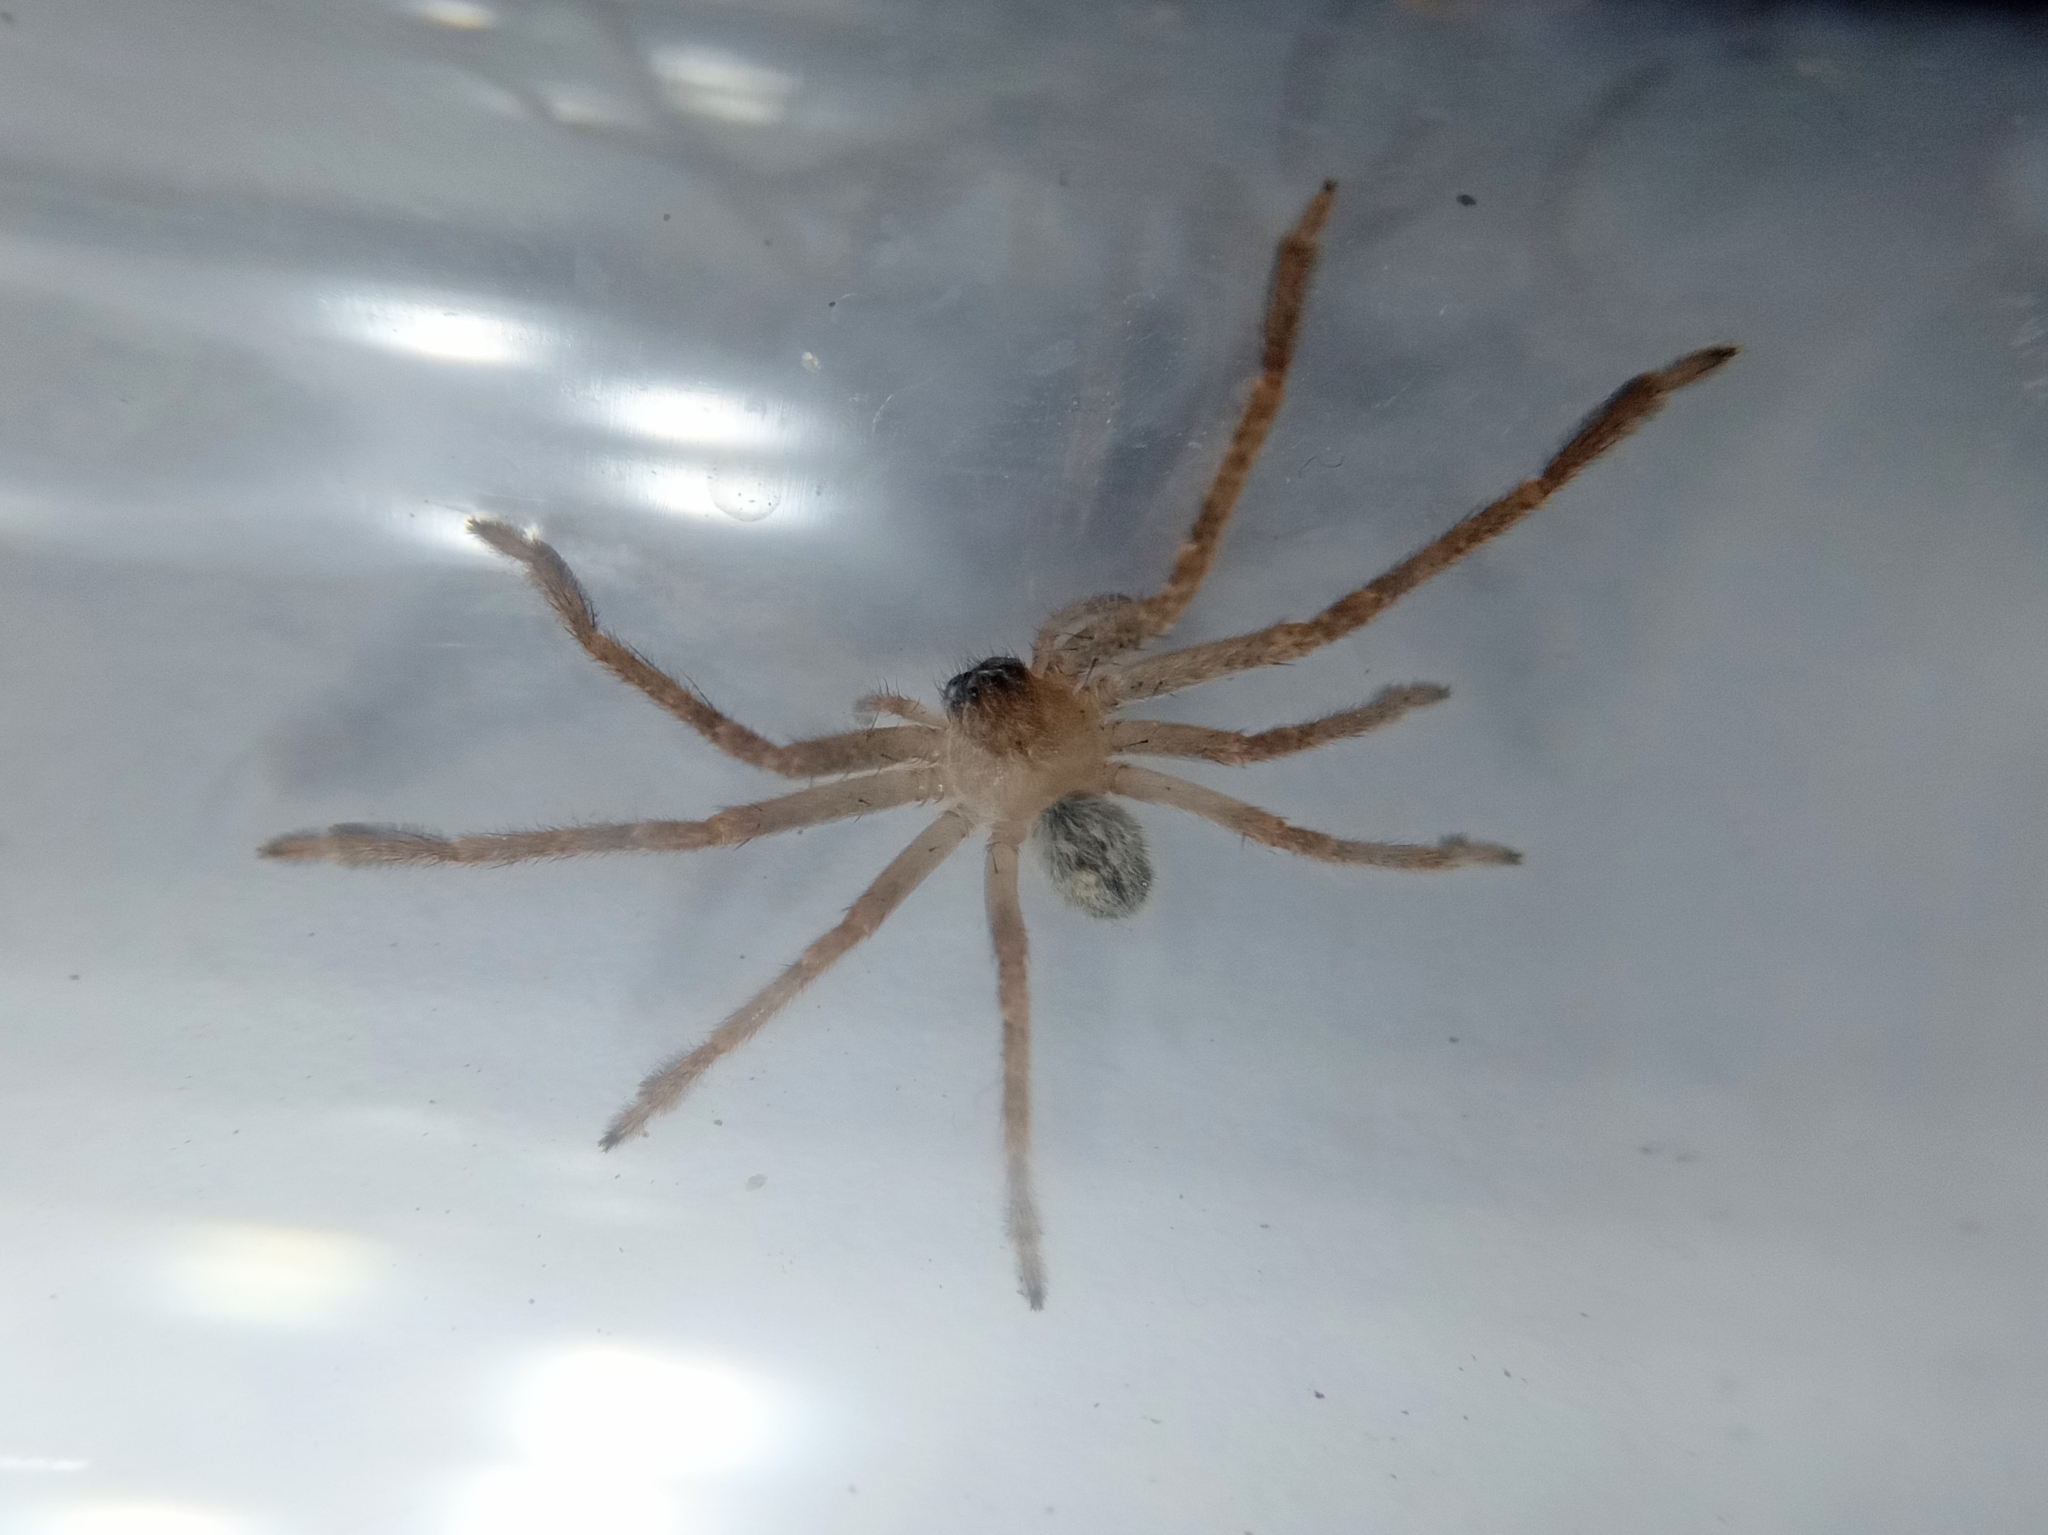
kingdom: Animalia
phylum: Arthropoda
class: Arachnida
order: Araneae
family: Sparassidae
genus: Olios
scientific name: Olios giganteus
